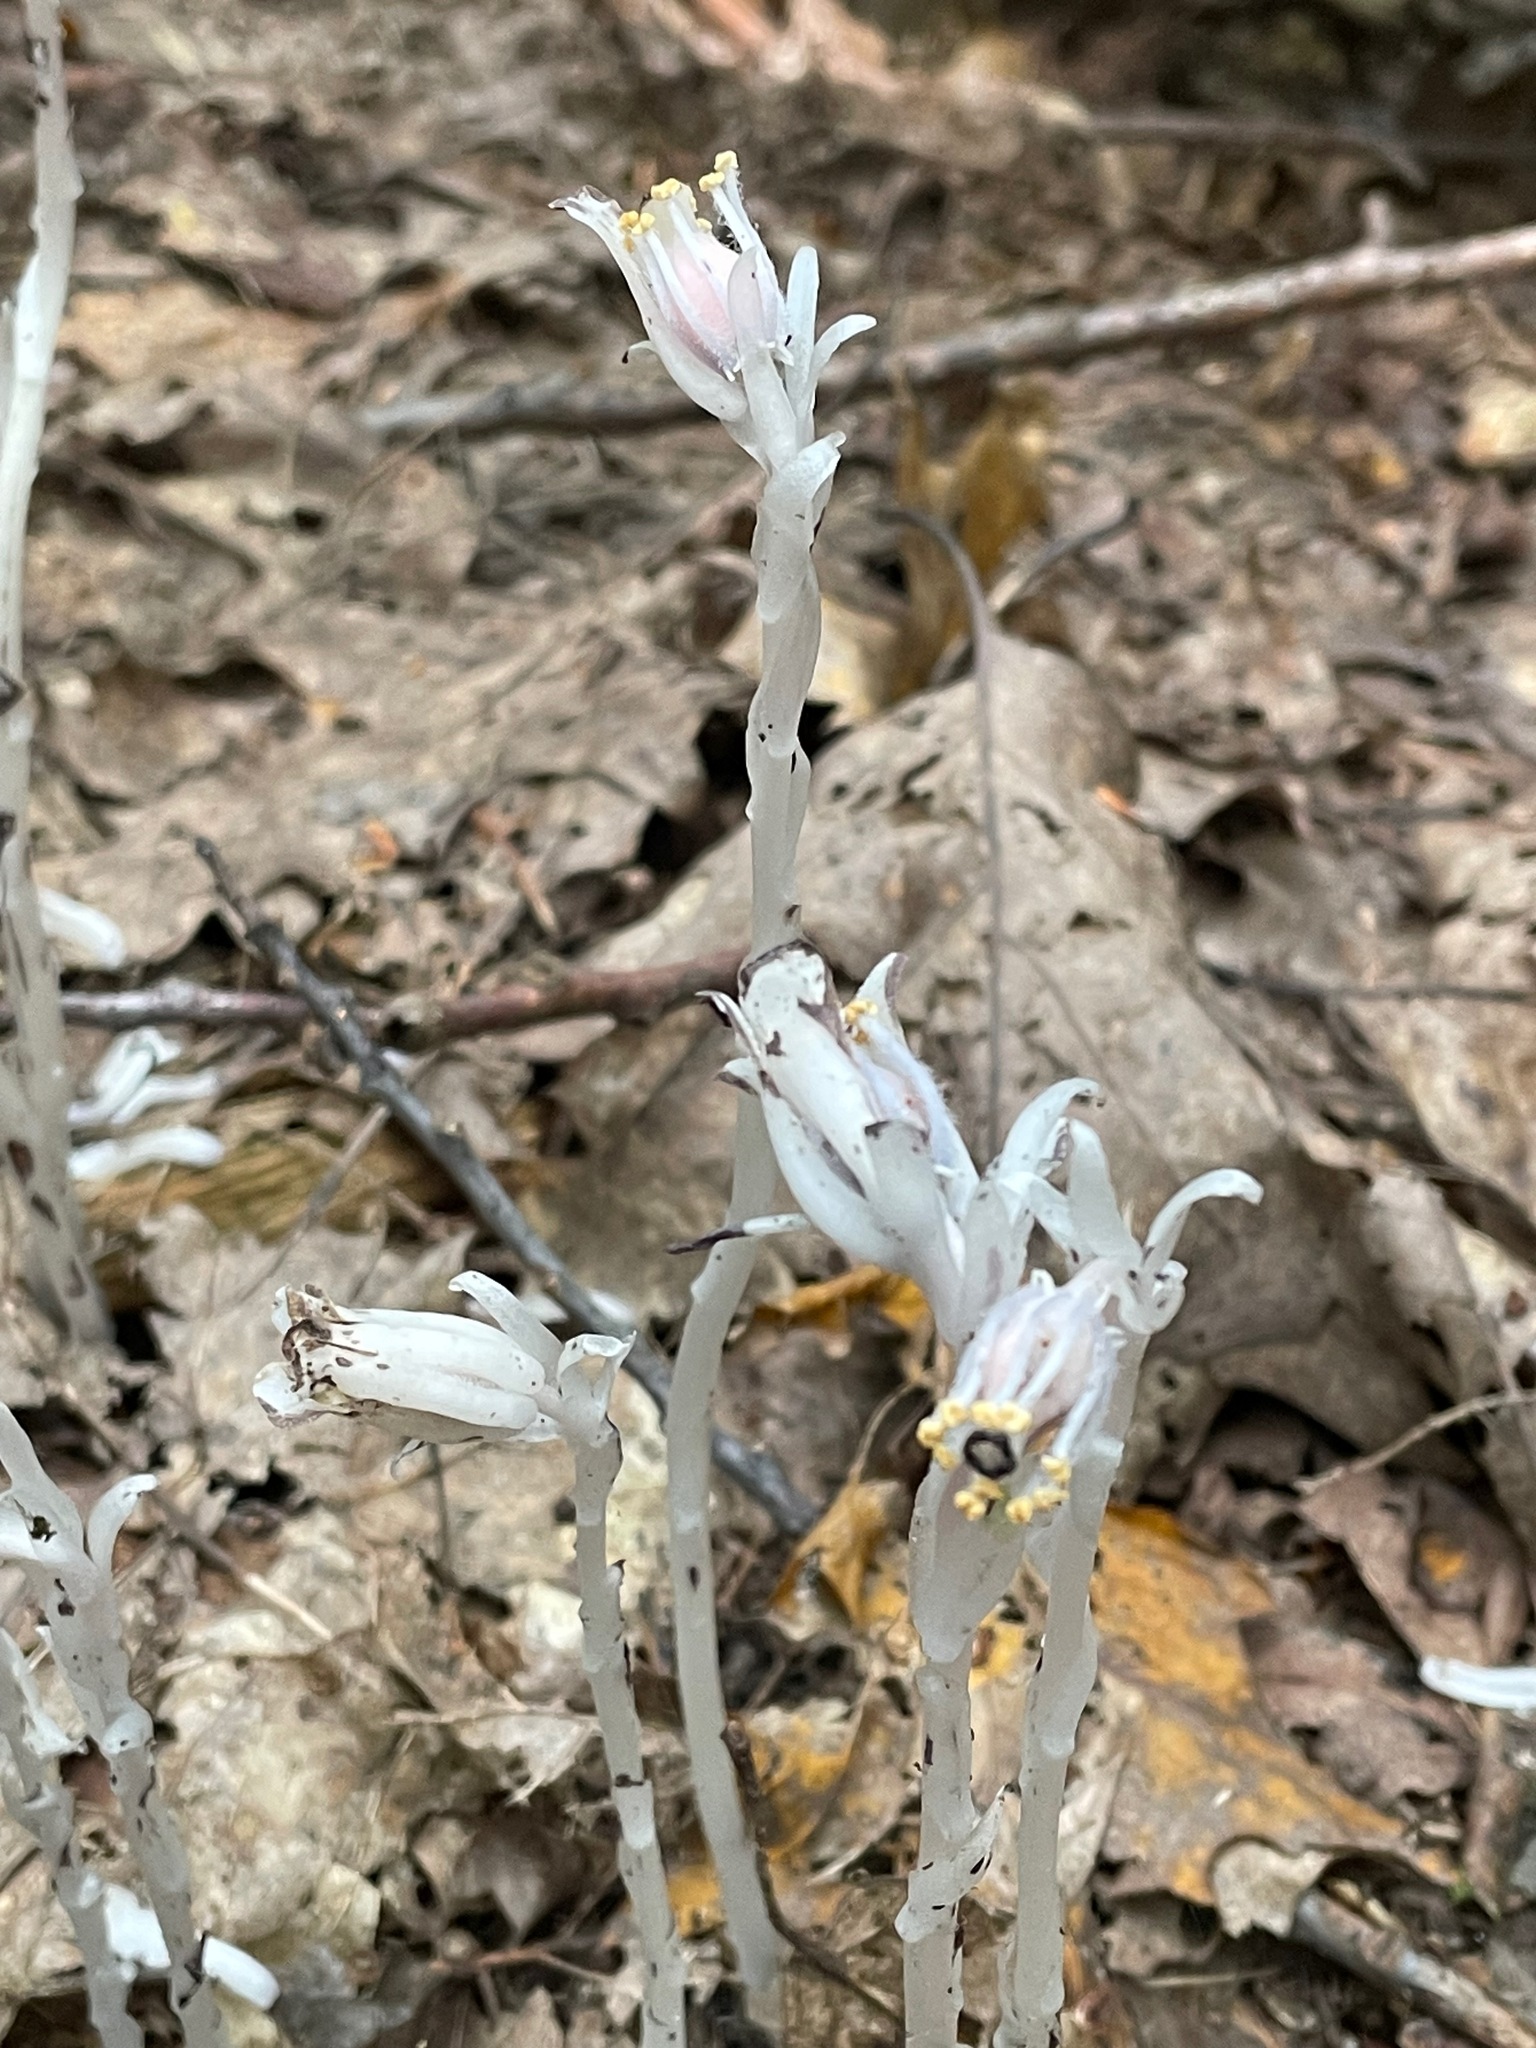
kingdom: Plantae
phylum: Tracheophyta
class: Magnoliopsida
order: Ericales
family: Ericaceae
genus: Monotropa
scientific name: Monotropa uniflora
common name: Convulsion root
